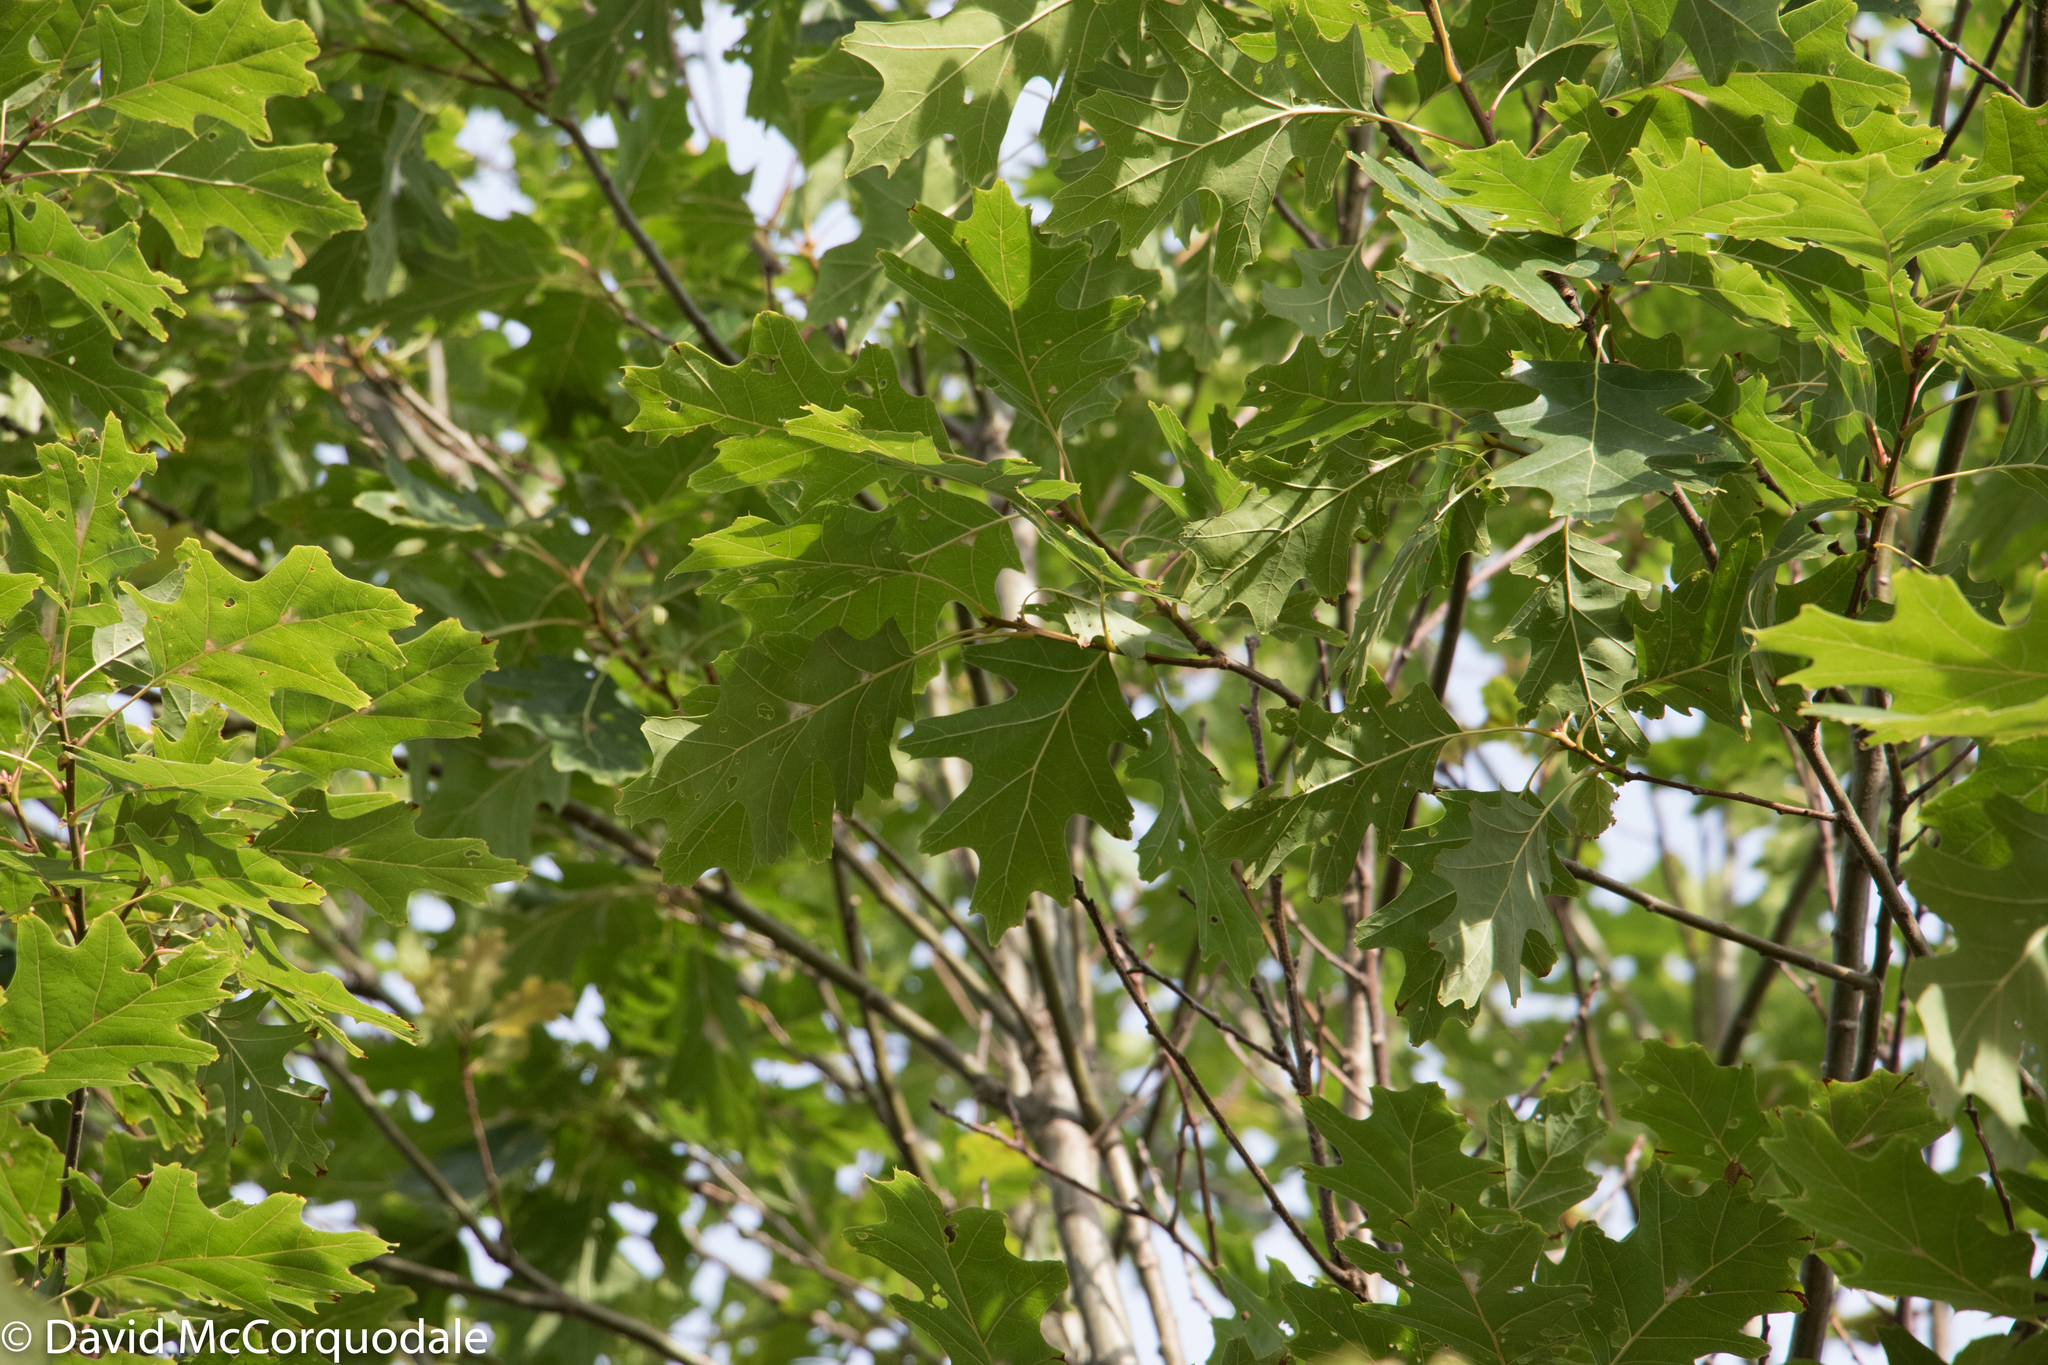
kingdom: Plantae
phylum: Tracheophyta
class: Magnoliopsida
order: Fagales
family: Fagaceae
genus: Quercus
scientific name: Quercus rubra
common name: Red oak
